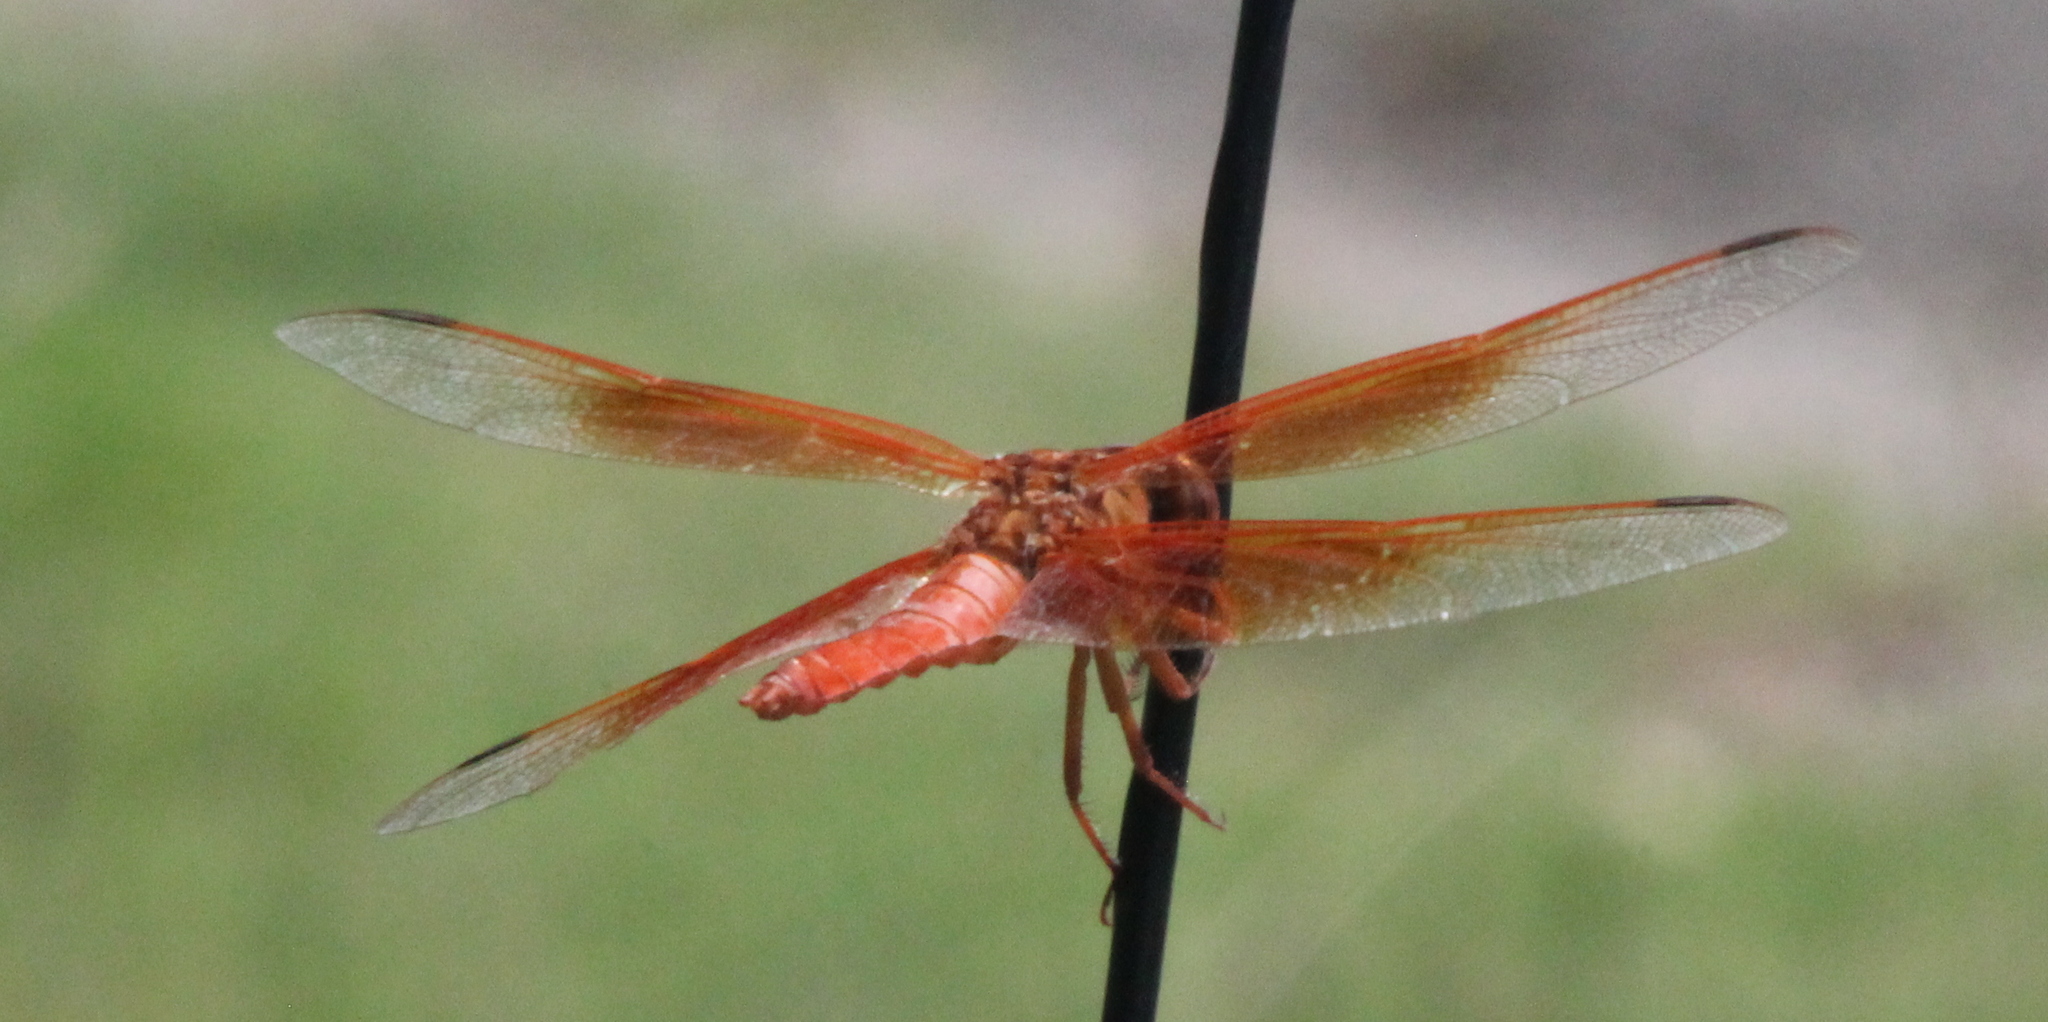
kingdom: Animalia
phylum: Arthropoda
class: Insecta
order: Odonata
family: Libellulidae
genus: Libellula
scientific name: Libellula saturata
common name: Flame skimmer
